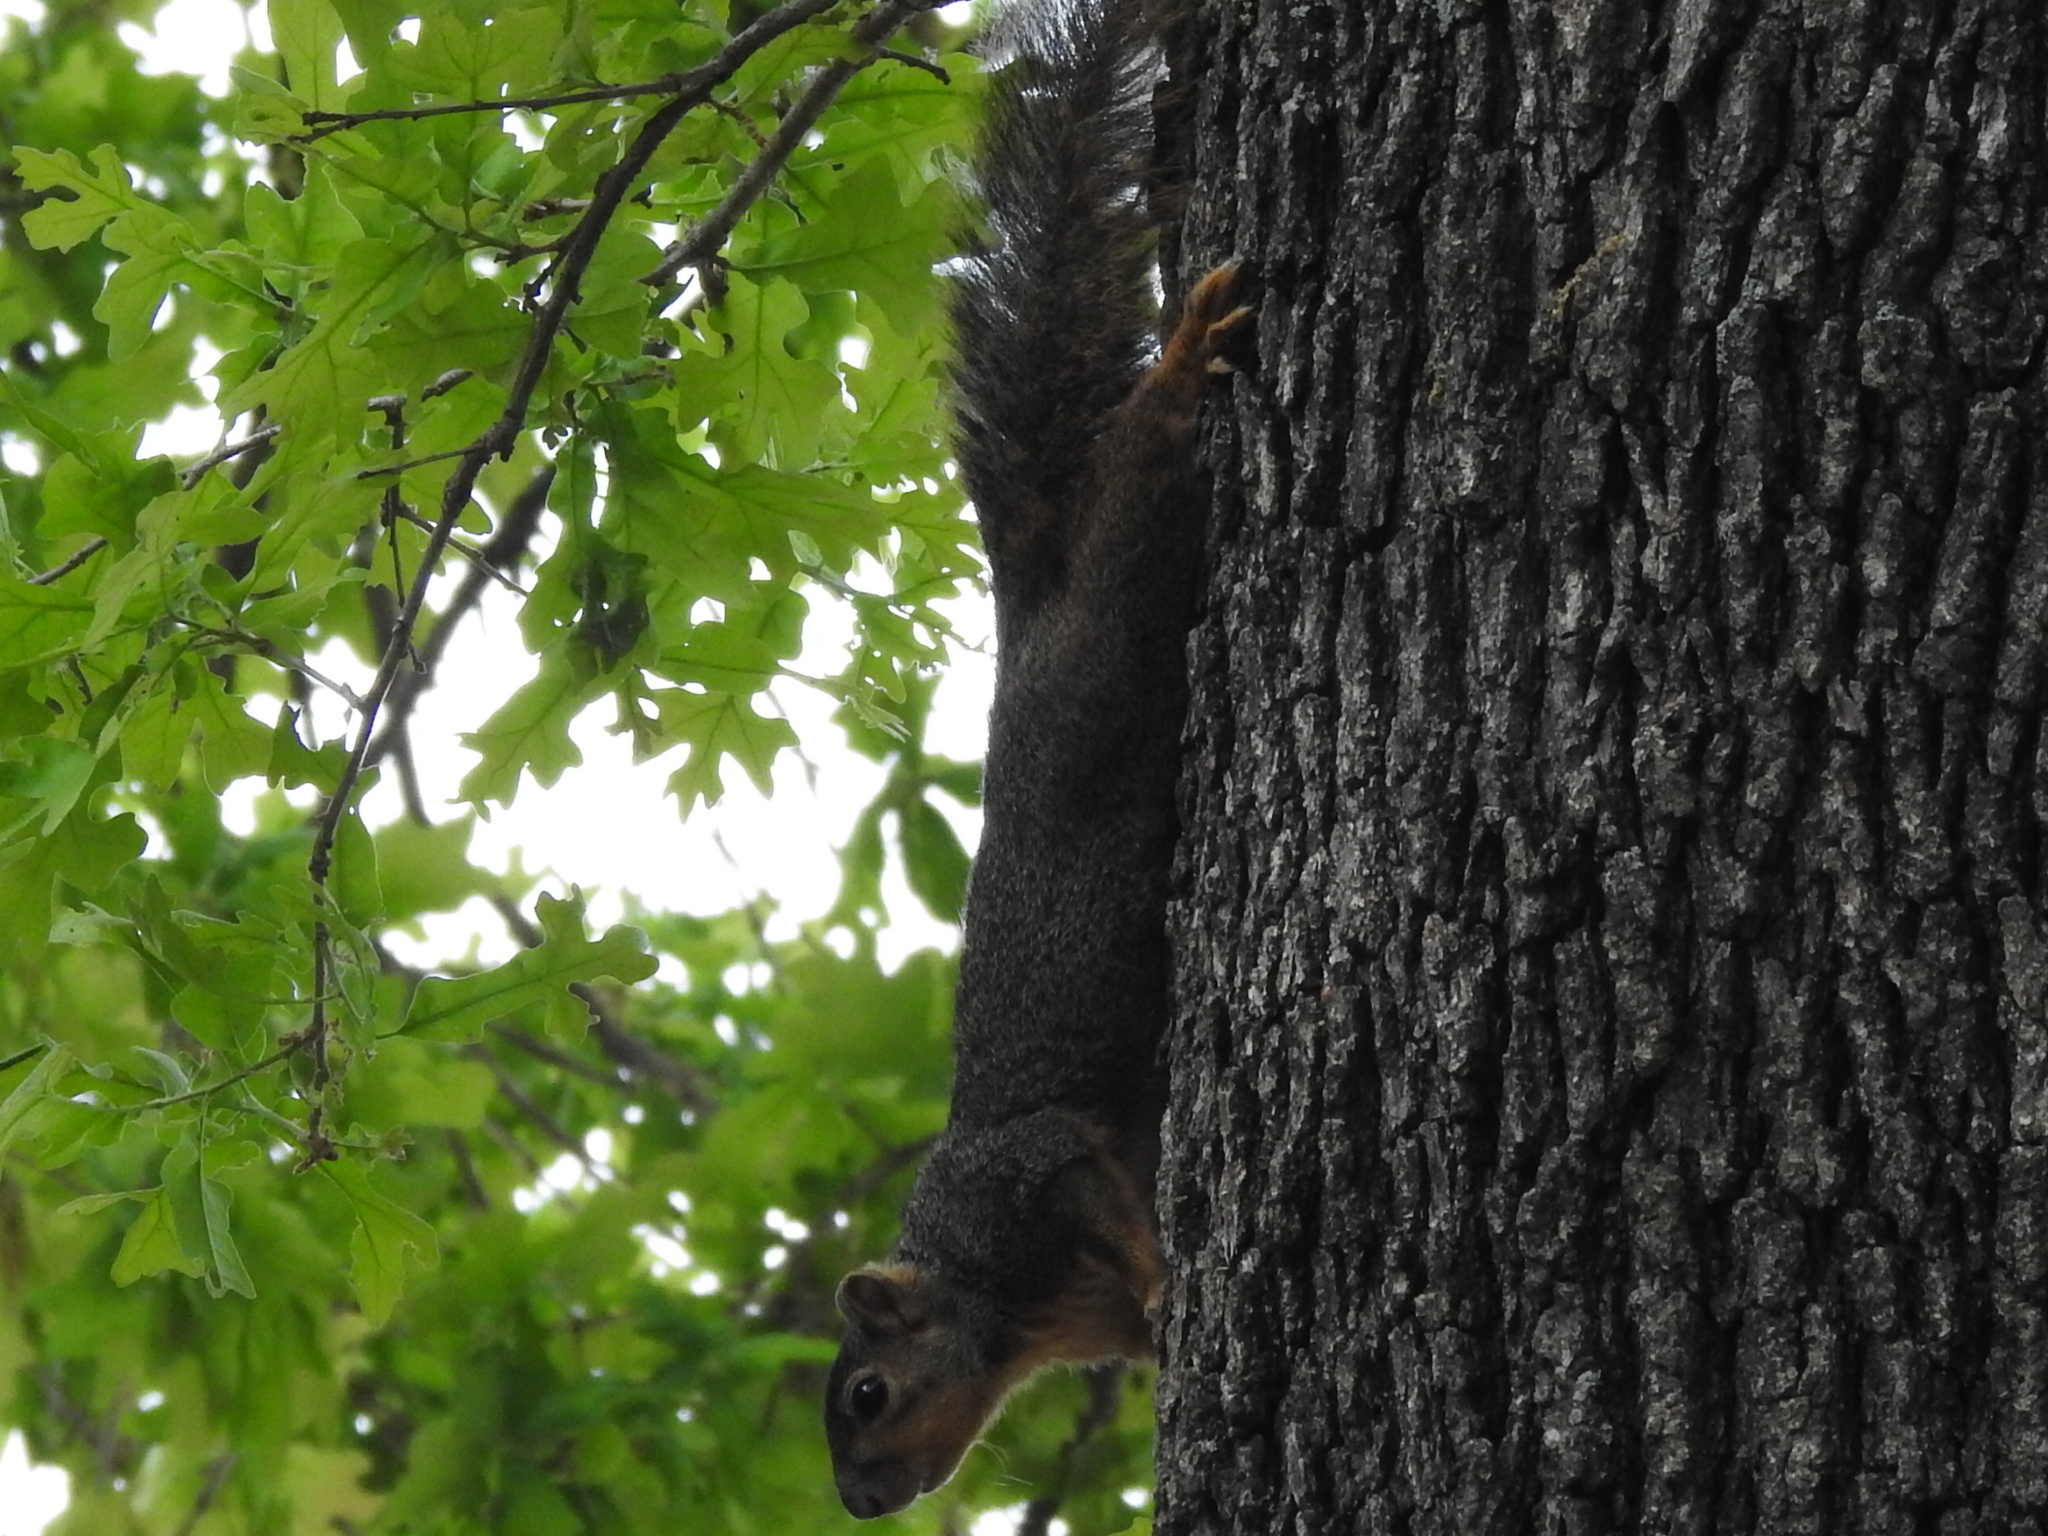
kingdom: Animalia
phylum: Chordata
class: Mammalia
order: Rodentia
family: Sciuridae
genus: Sciurus
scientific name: Sciurus niger
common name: Fox squirrel
